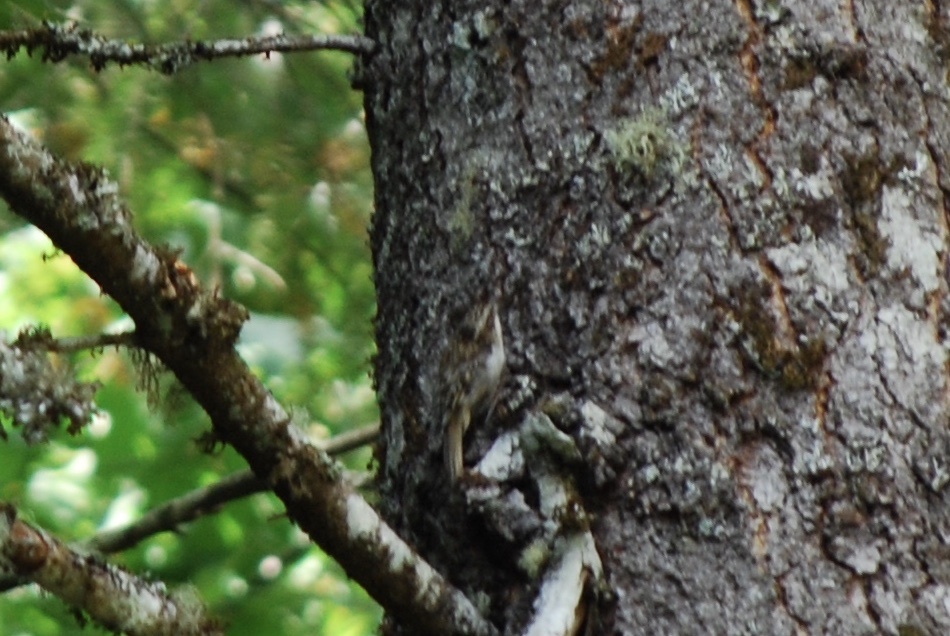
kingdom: Animalia
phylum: Chordata
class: Aves
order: Passeriformes
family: Certhiidae
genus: Certhia
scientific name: Certhia americana
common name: Brown creeper
